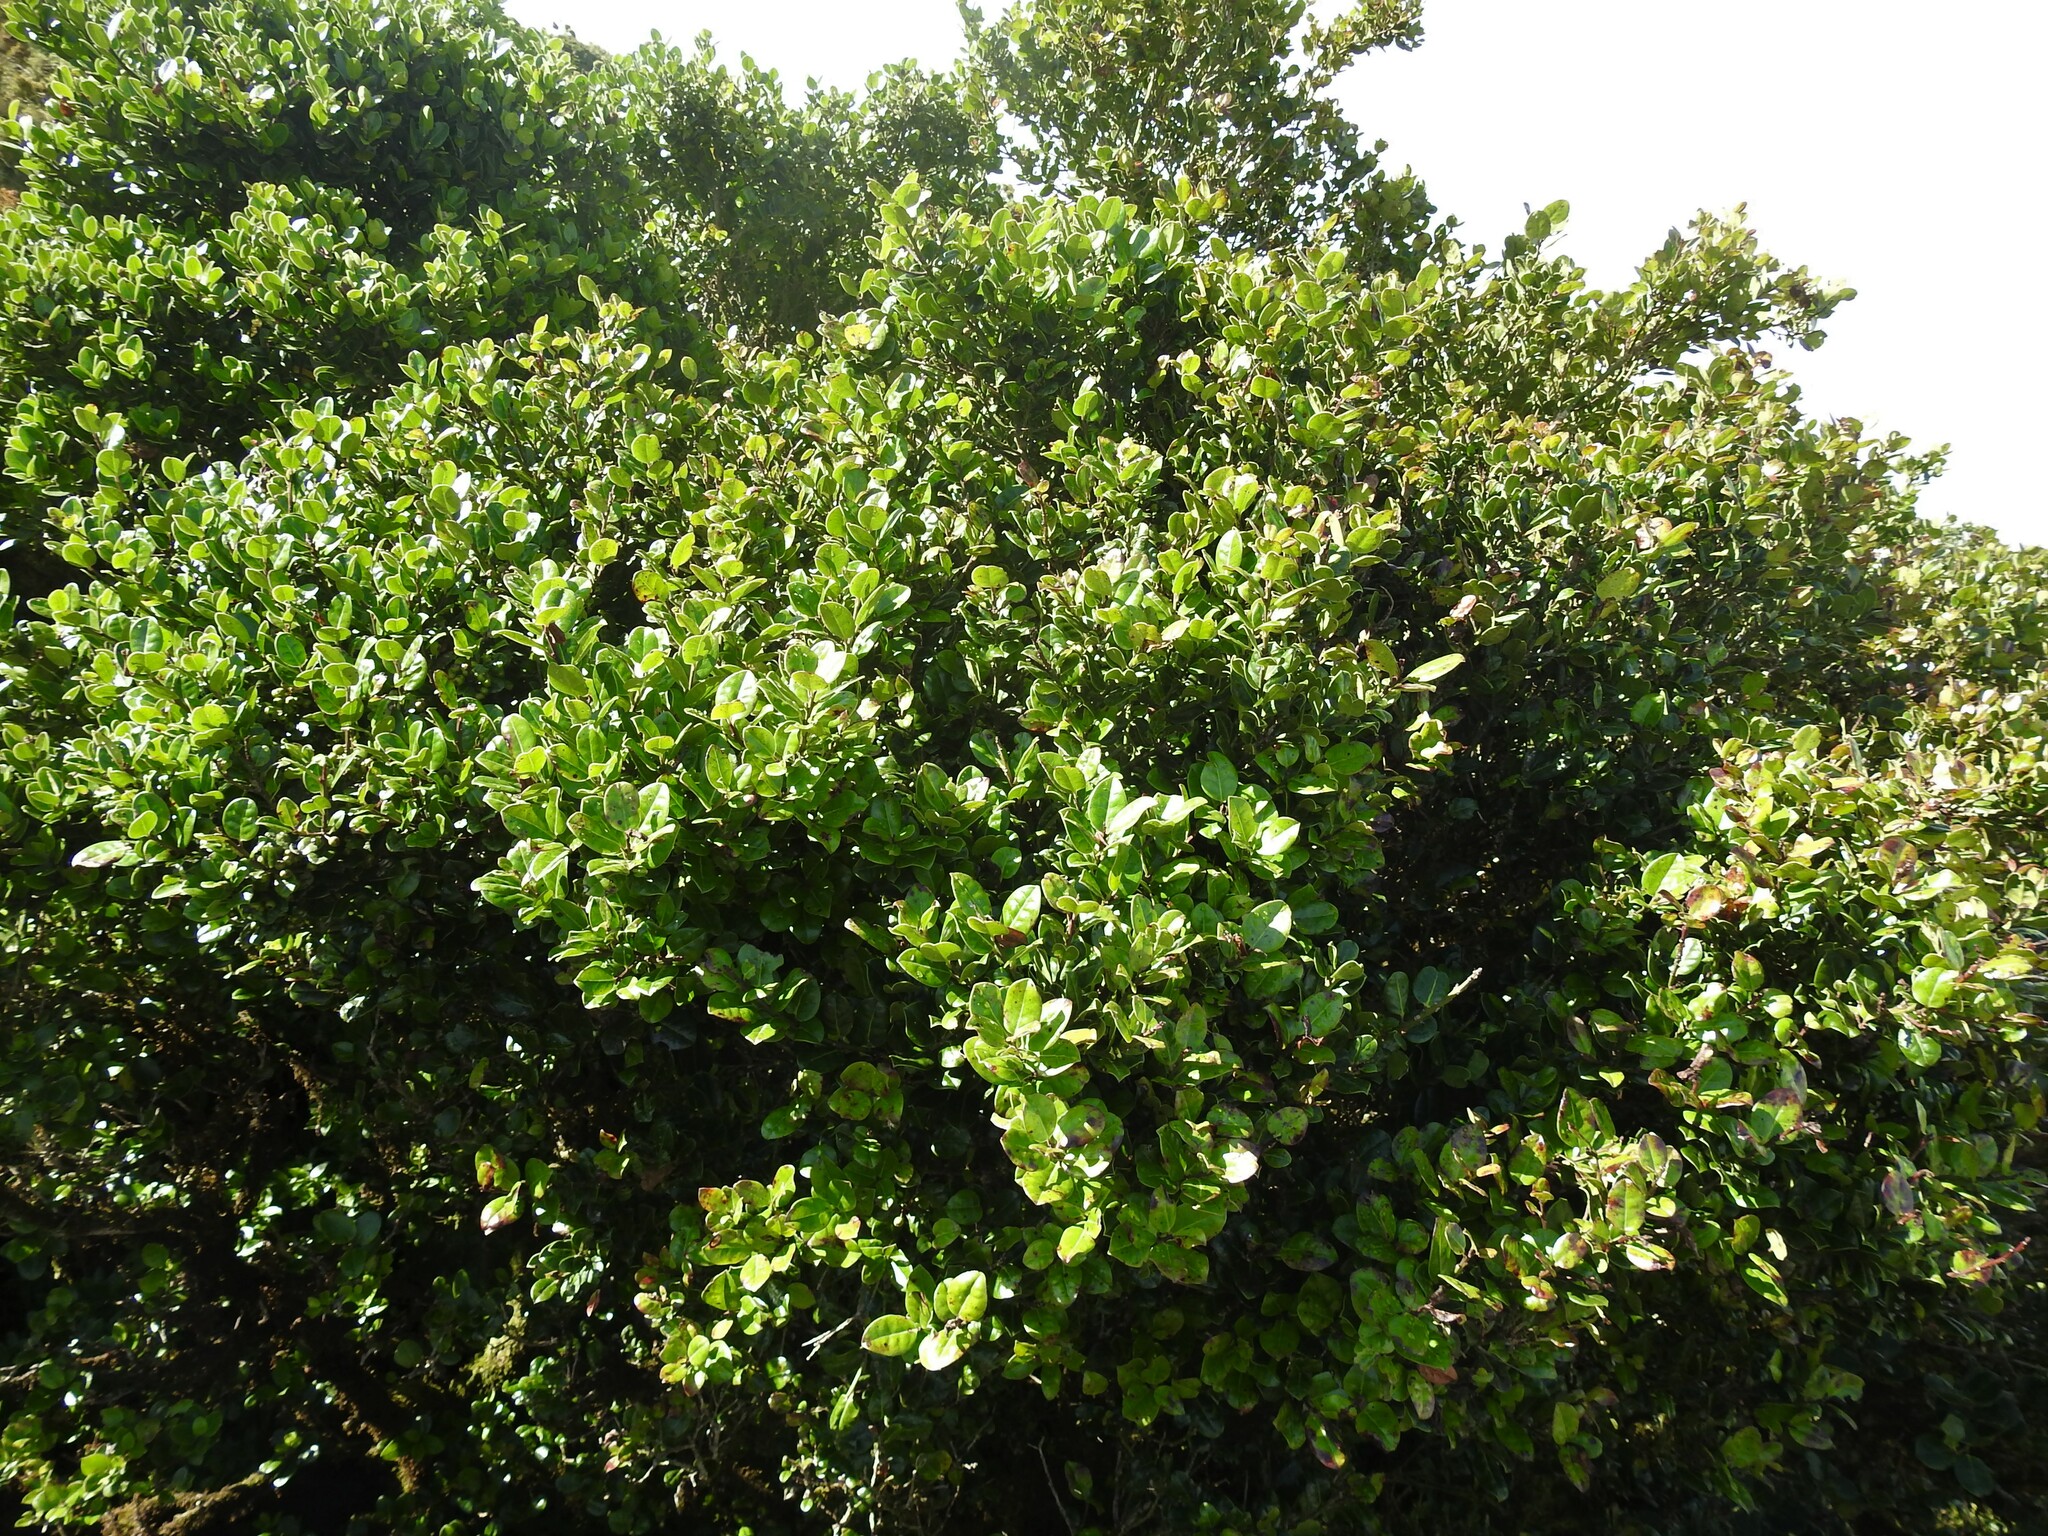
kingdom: Plantae
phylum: Tracheophyta
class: Magnoliopsida
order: Aquifoliales
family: Aquifoliaceae
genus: Ilex
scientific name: Ilex perado
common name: Madeira holly
